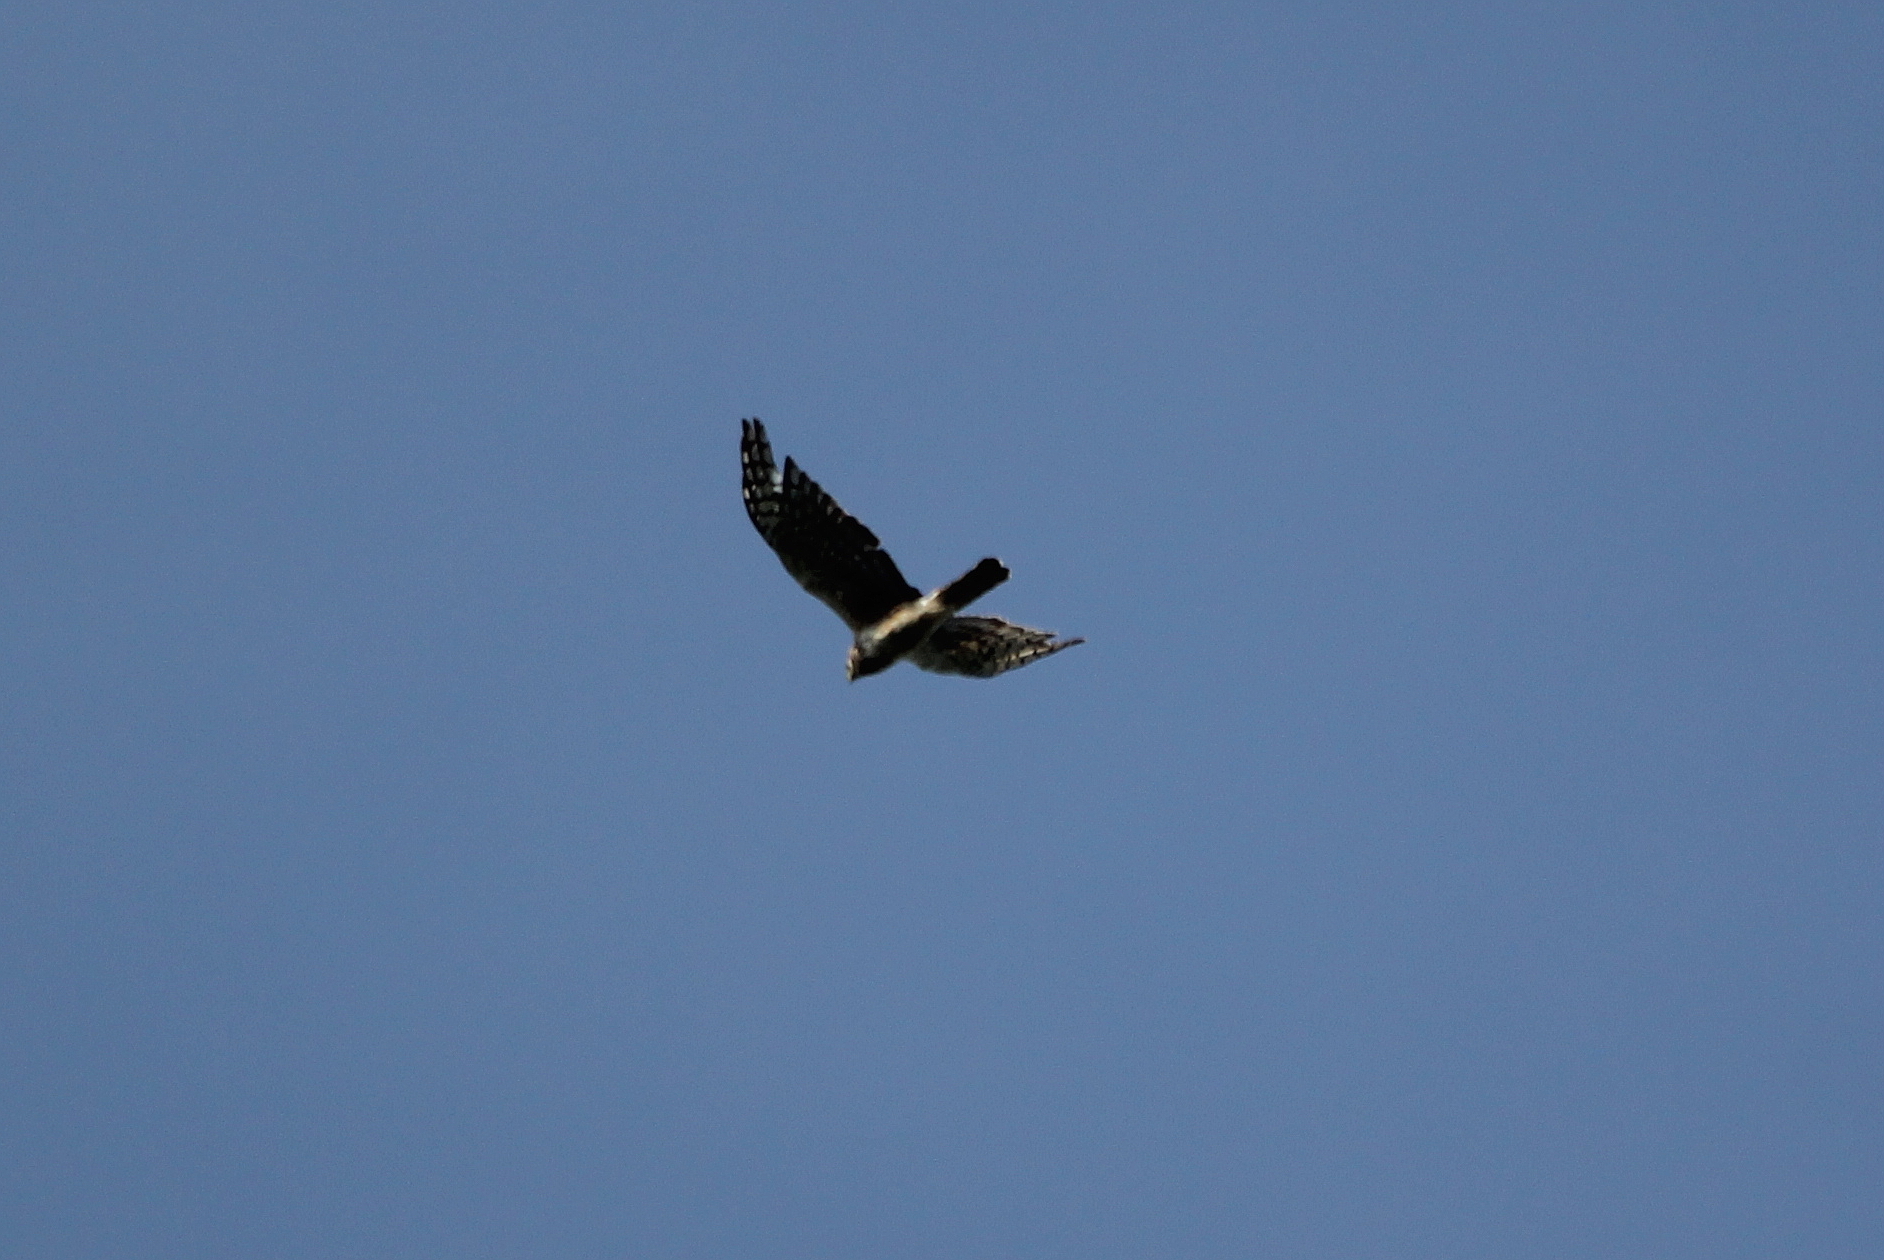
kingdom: Animalia
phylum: Chordata
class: Aves
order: Accipitriformes
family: Accipitridae
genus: Circus
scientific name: Circus cyaneus
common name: Hen harrier
